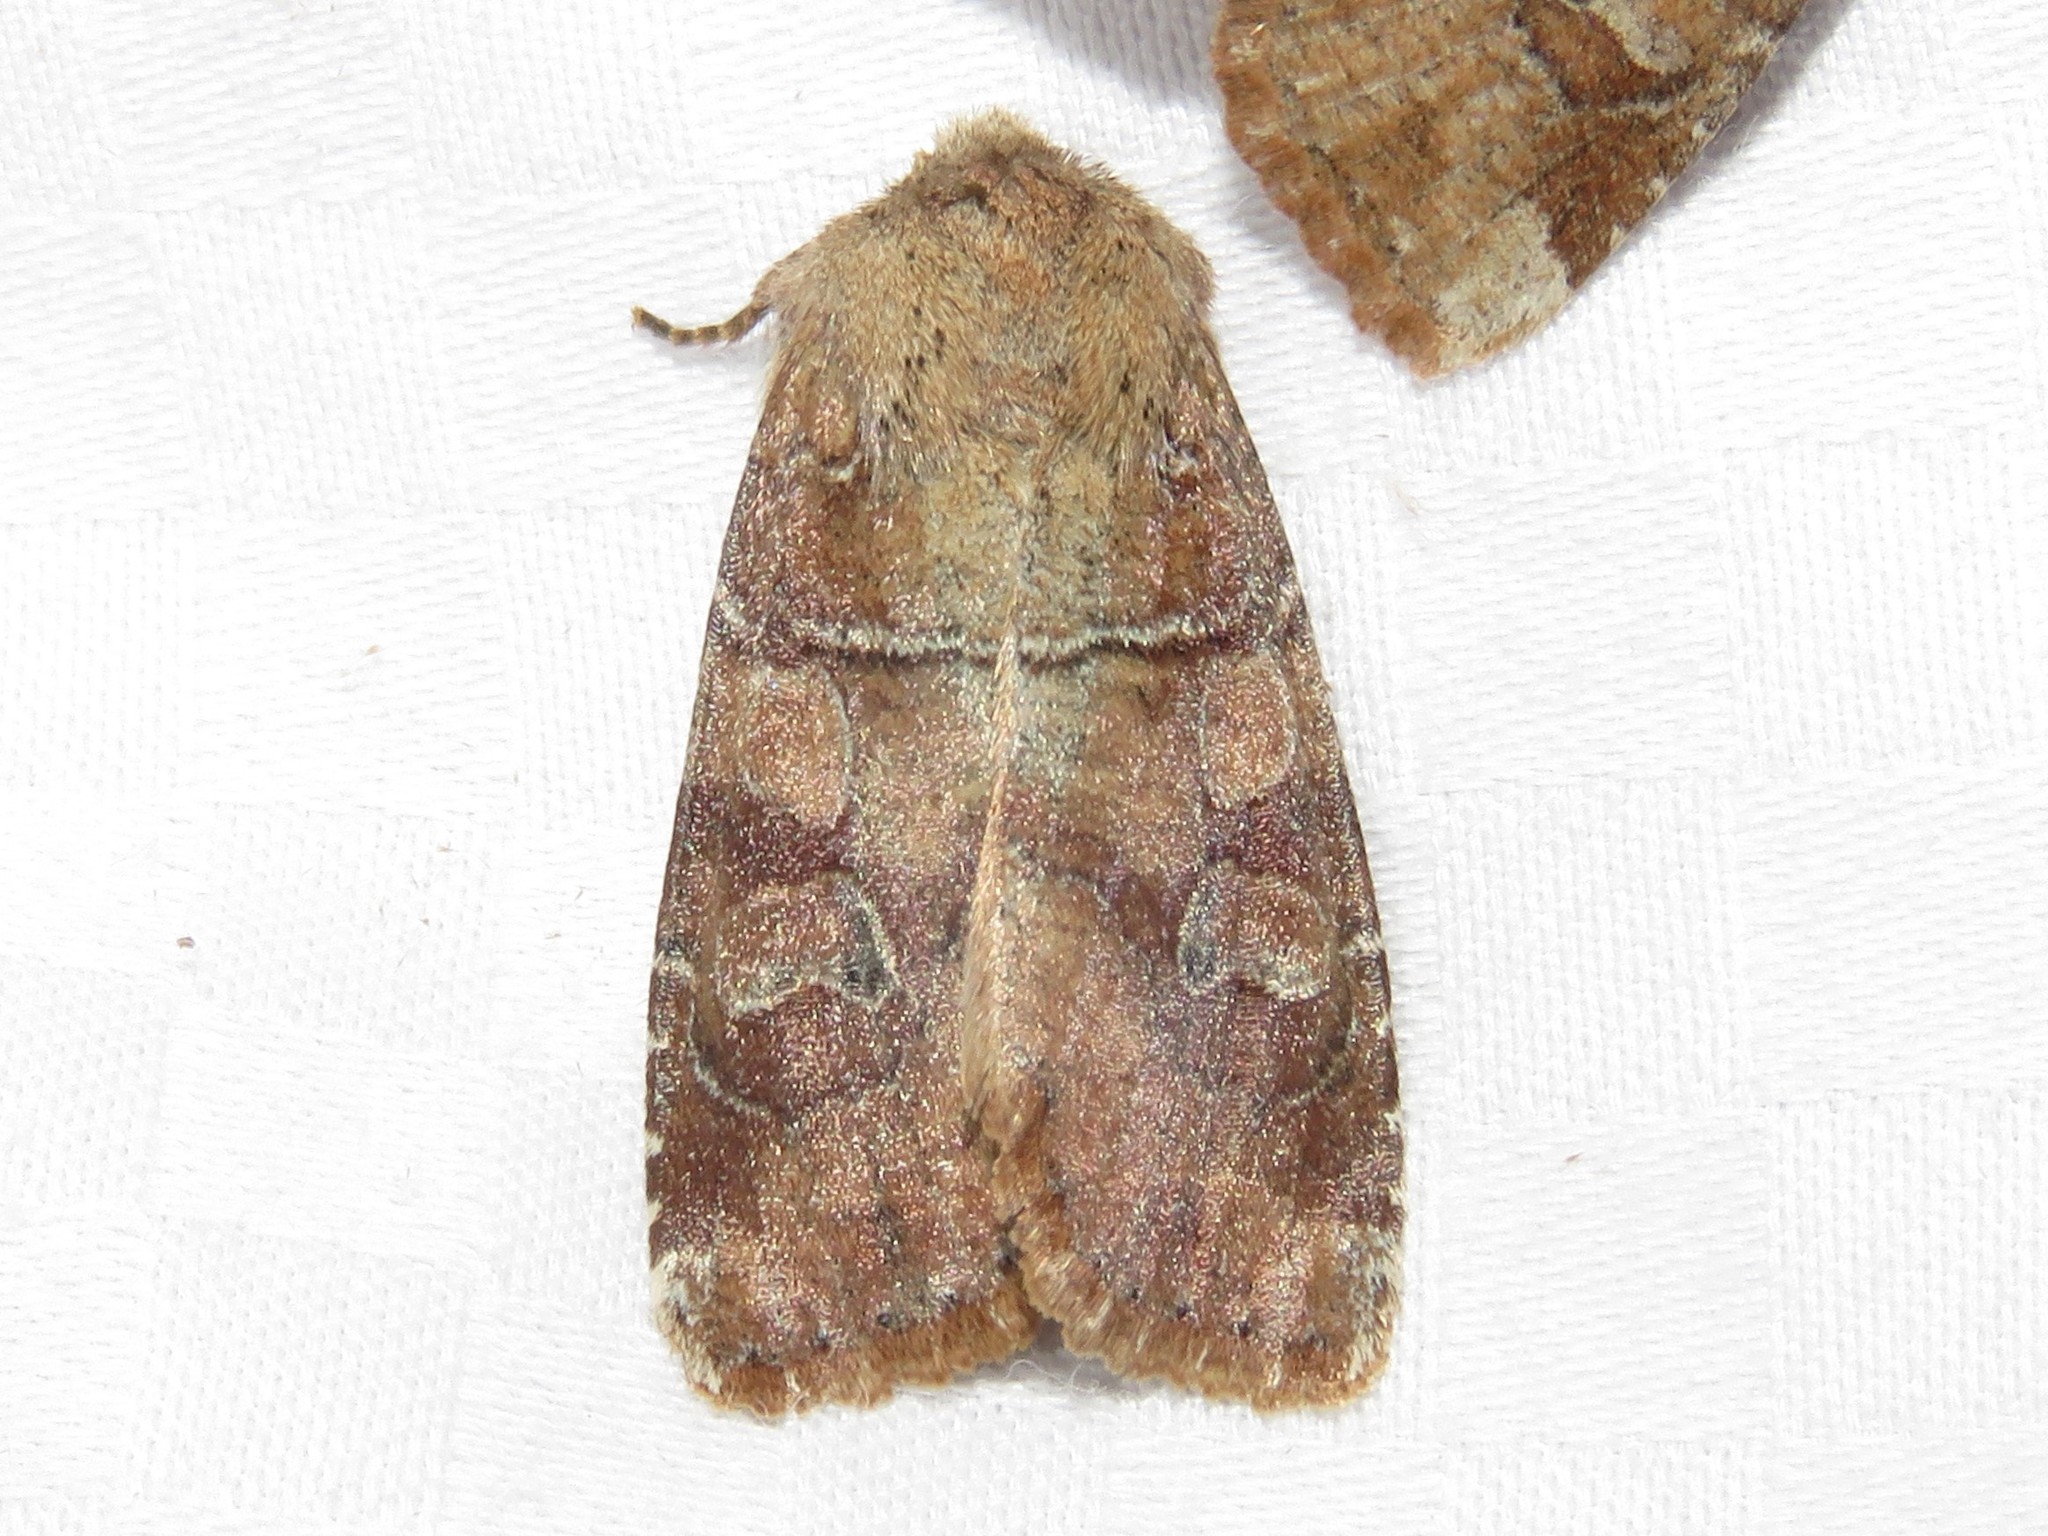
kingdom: Animalia
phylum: Arthropoda
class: Insecta
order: Lepidoptera
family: Noctuidae
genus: Crocigrapha
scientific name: Crocigrapha normani
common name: Norman's quaker
